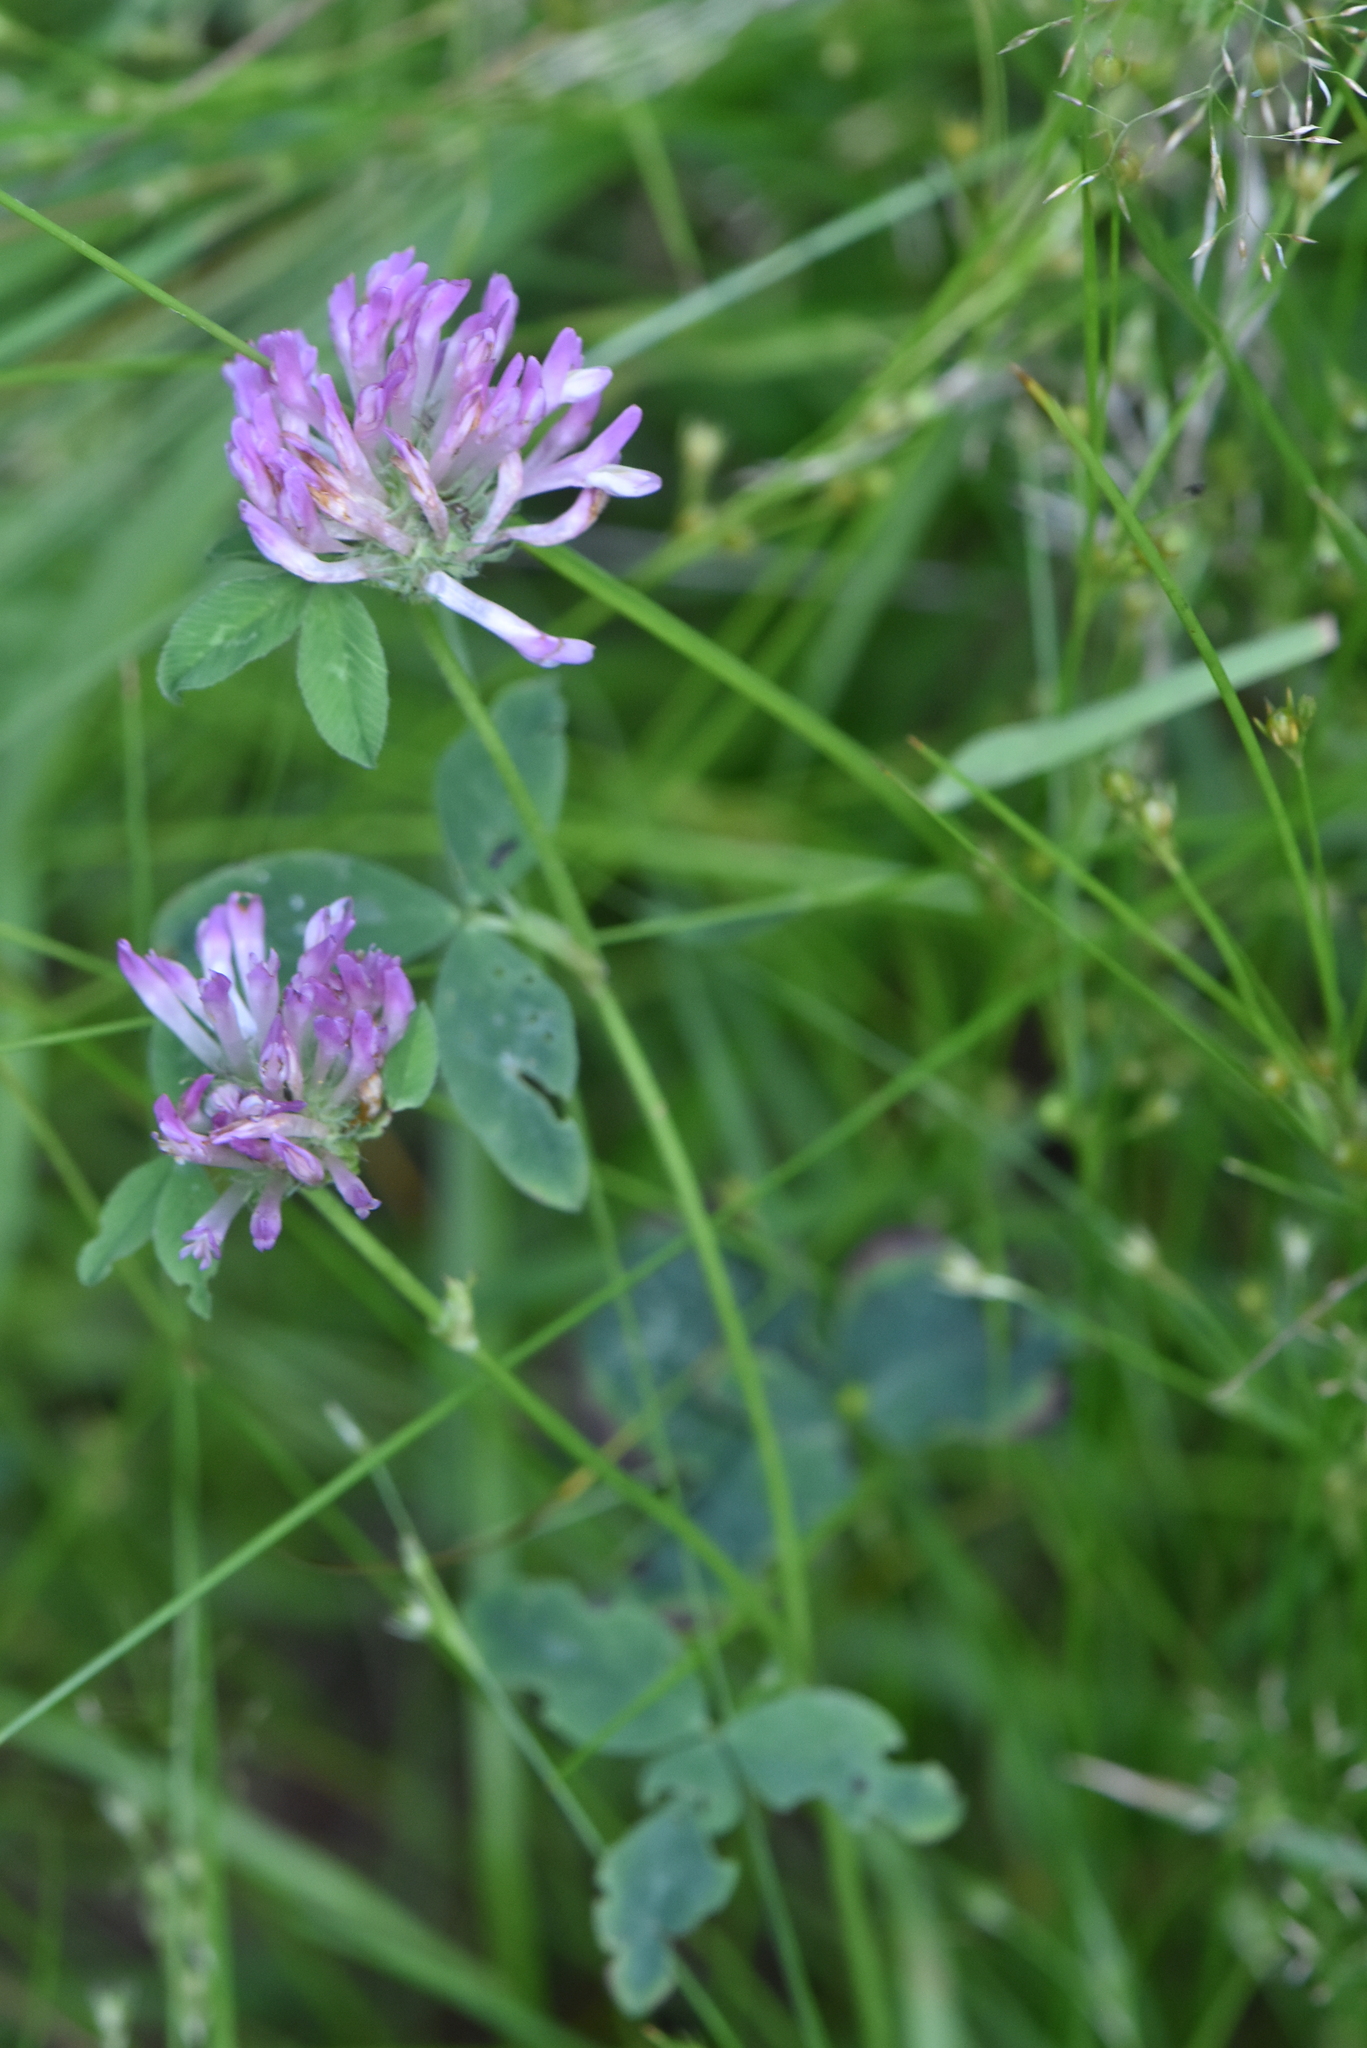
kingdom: Plantae
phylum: Tracheophyta
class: Magnoliopsida
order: Fabales
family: Fabaceae
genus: Trifolium
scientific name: Trifolium pratense
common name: Red clover
